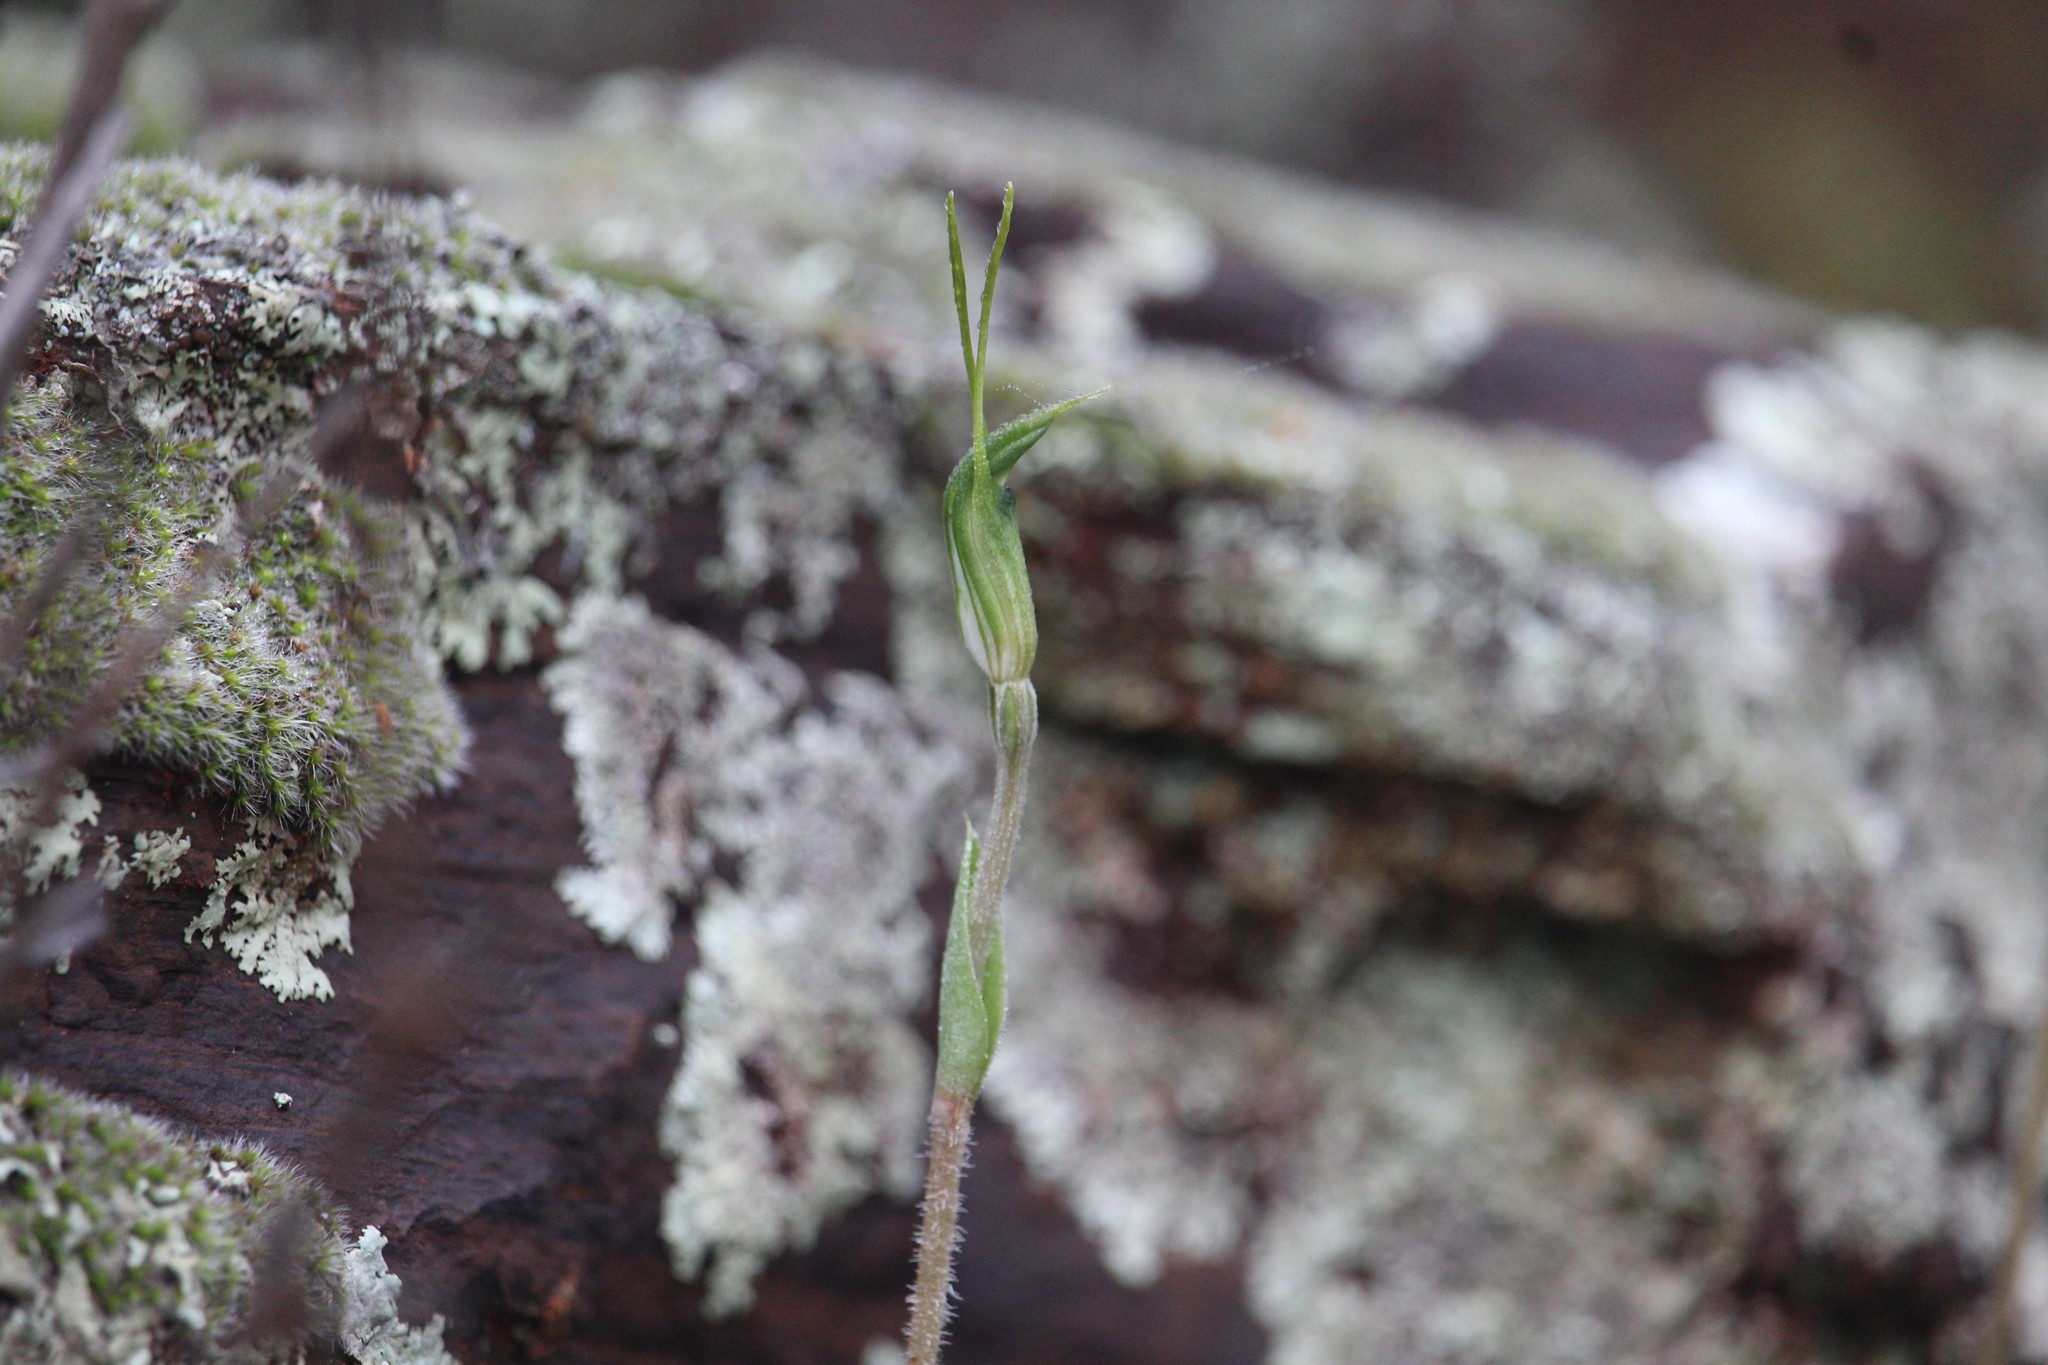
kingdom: Plantae
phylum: Tracheophyta
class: Liliopsida
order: Asparagales
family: Orchidaceae
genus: Pterostylis
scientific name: Pterostylis setulosa
